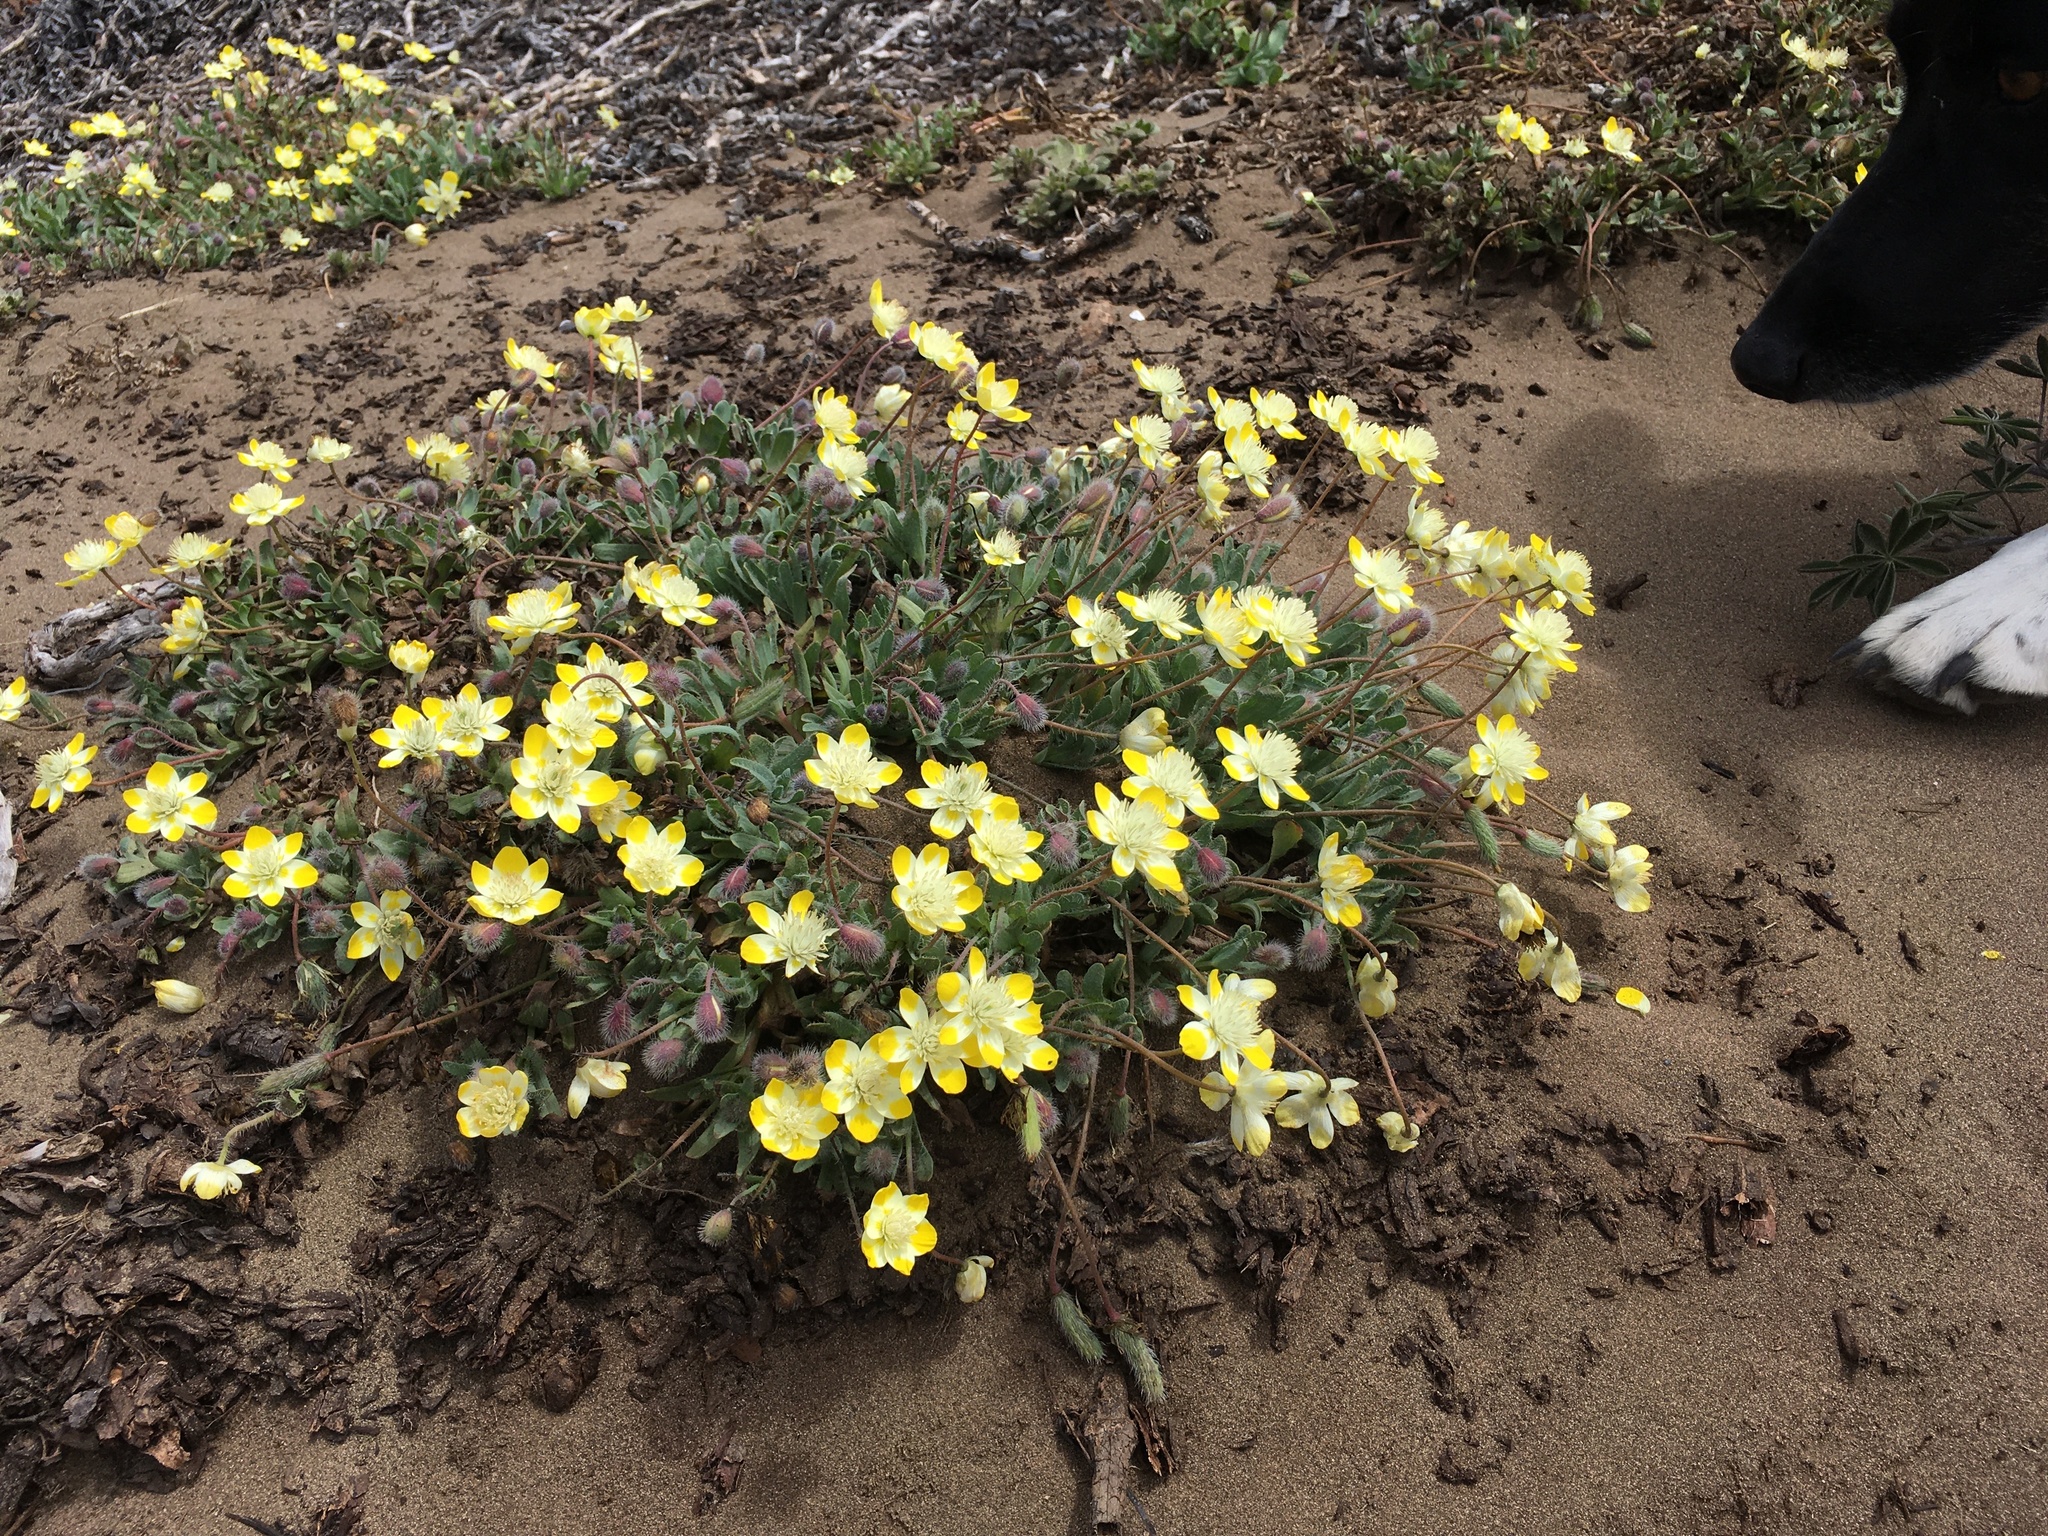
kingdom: Plantae
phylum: Tracheophyta
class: Magnoliopsida
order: Ranunculales
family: Papaveraceae
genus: Platystemon
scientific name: Platystemon californicus
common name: Cream-cups
